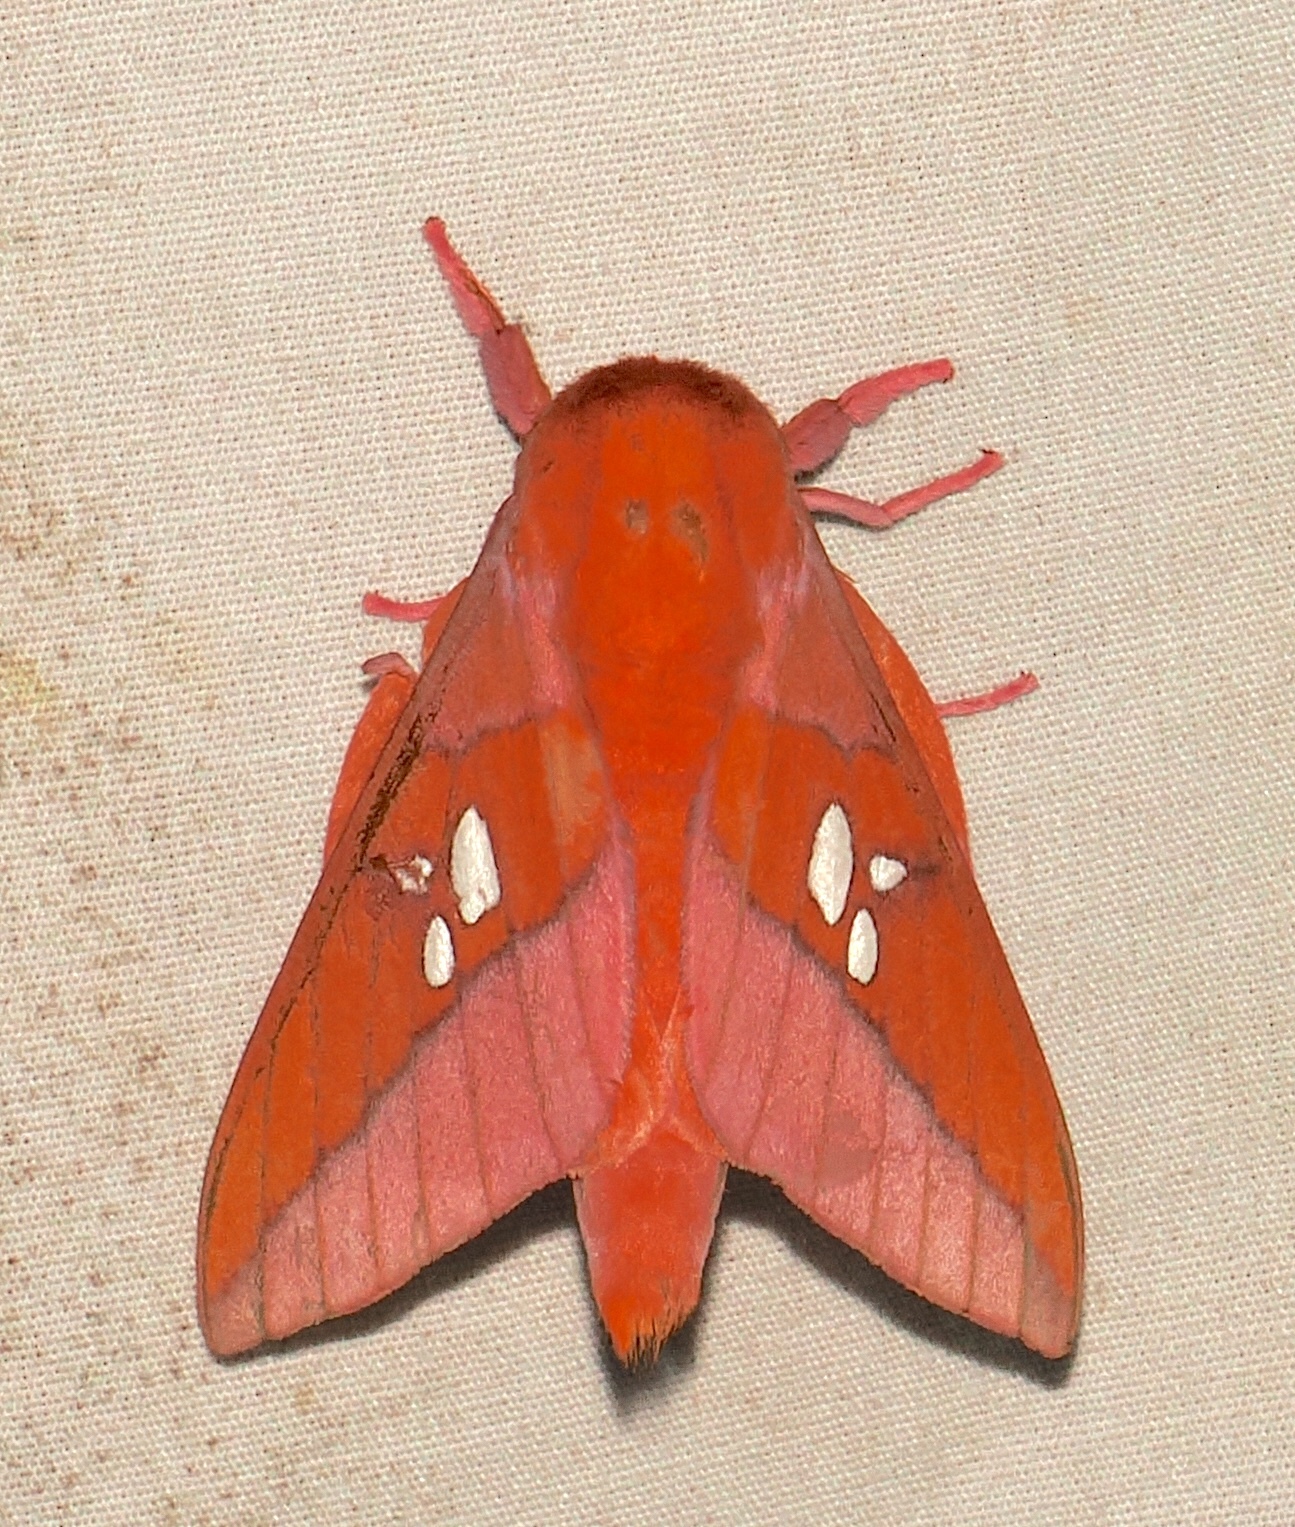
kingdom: Animalia
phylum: Arthropoda
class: Insecta
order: Lepidoptera
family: Saturniidae
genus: Adelowalkeria
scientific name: Adelowalkeria tristygma
